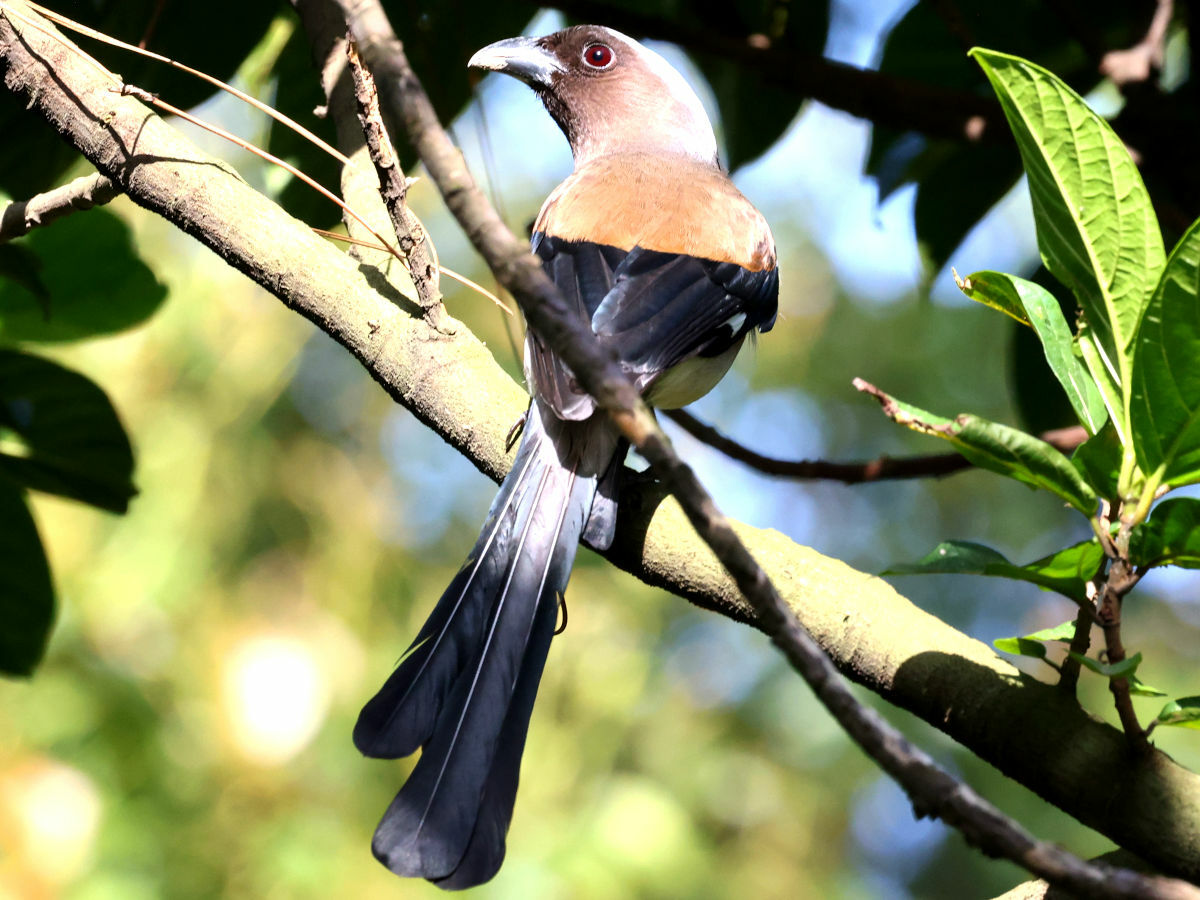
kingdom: Animalia
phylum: Chordata
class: Aves
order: Passeriformes
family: Corvidae
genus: Dendrocitta
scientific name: Dendrocitta formosae
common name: Grey treepie
